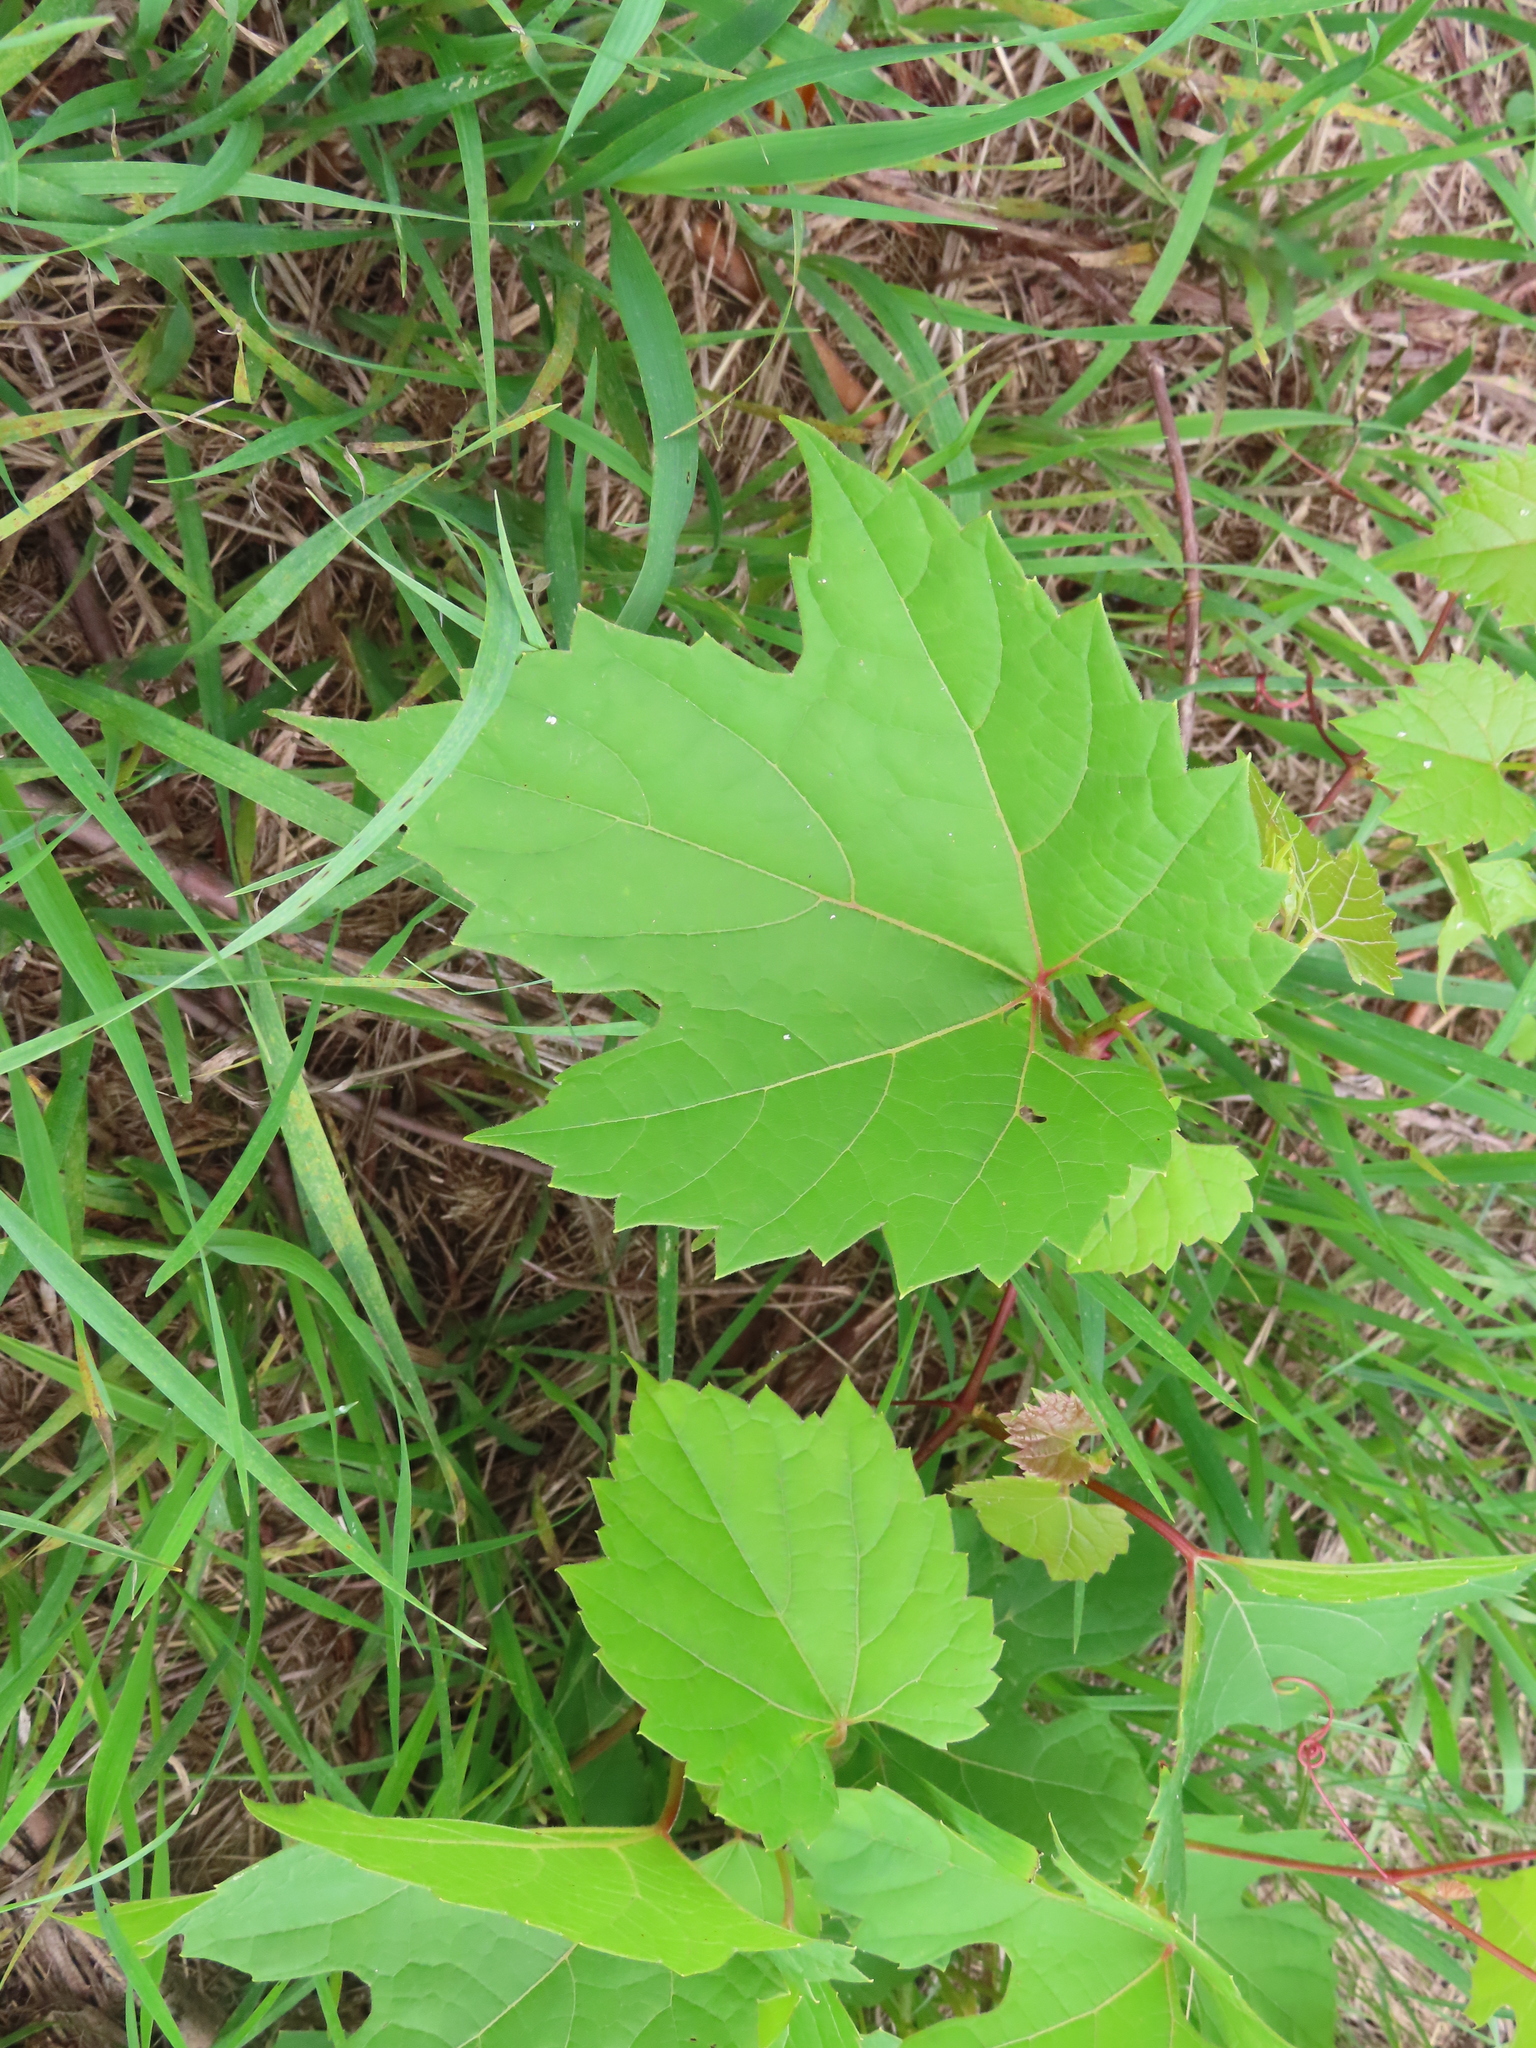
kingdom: Plantae
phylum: Tracheophyta
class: Magnoliopsida
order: Vitales
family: Vitaceae
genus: Vitis
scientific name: Vitis riparia
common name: Frost grape
